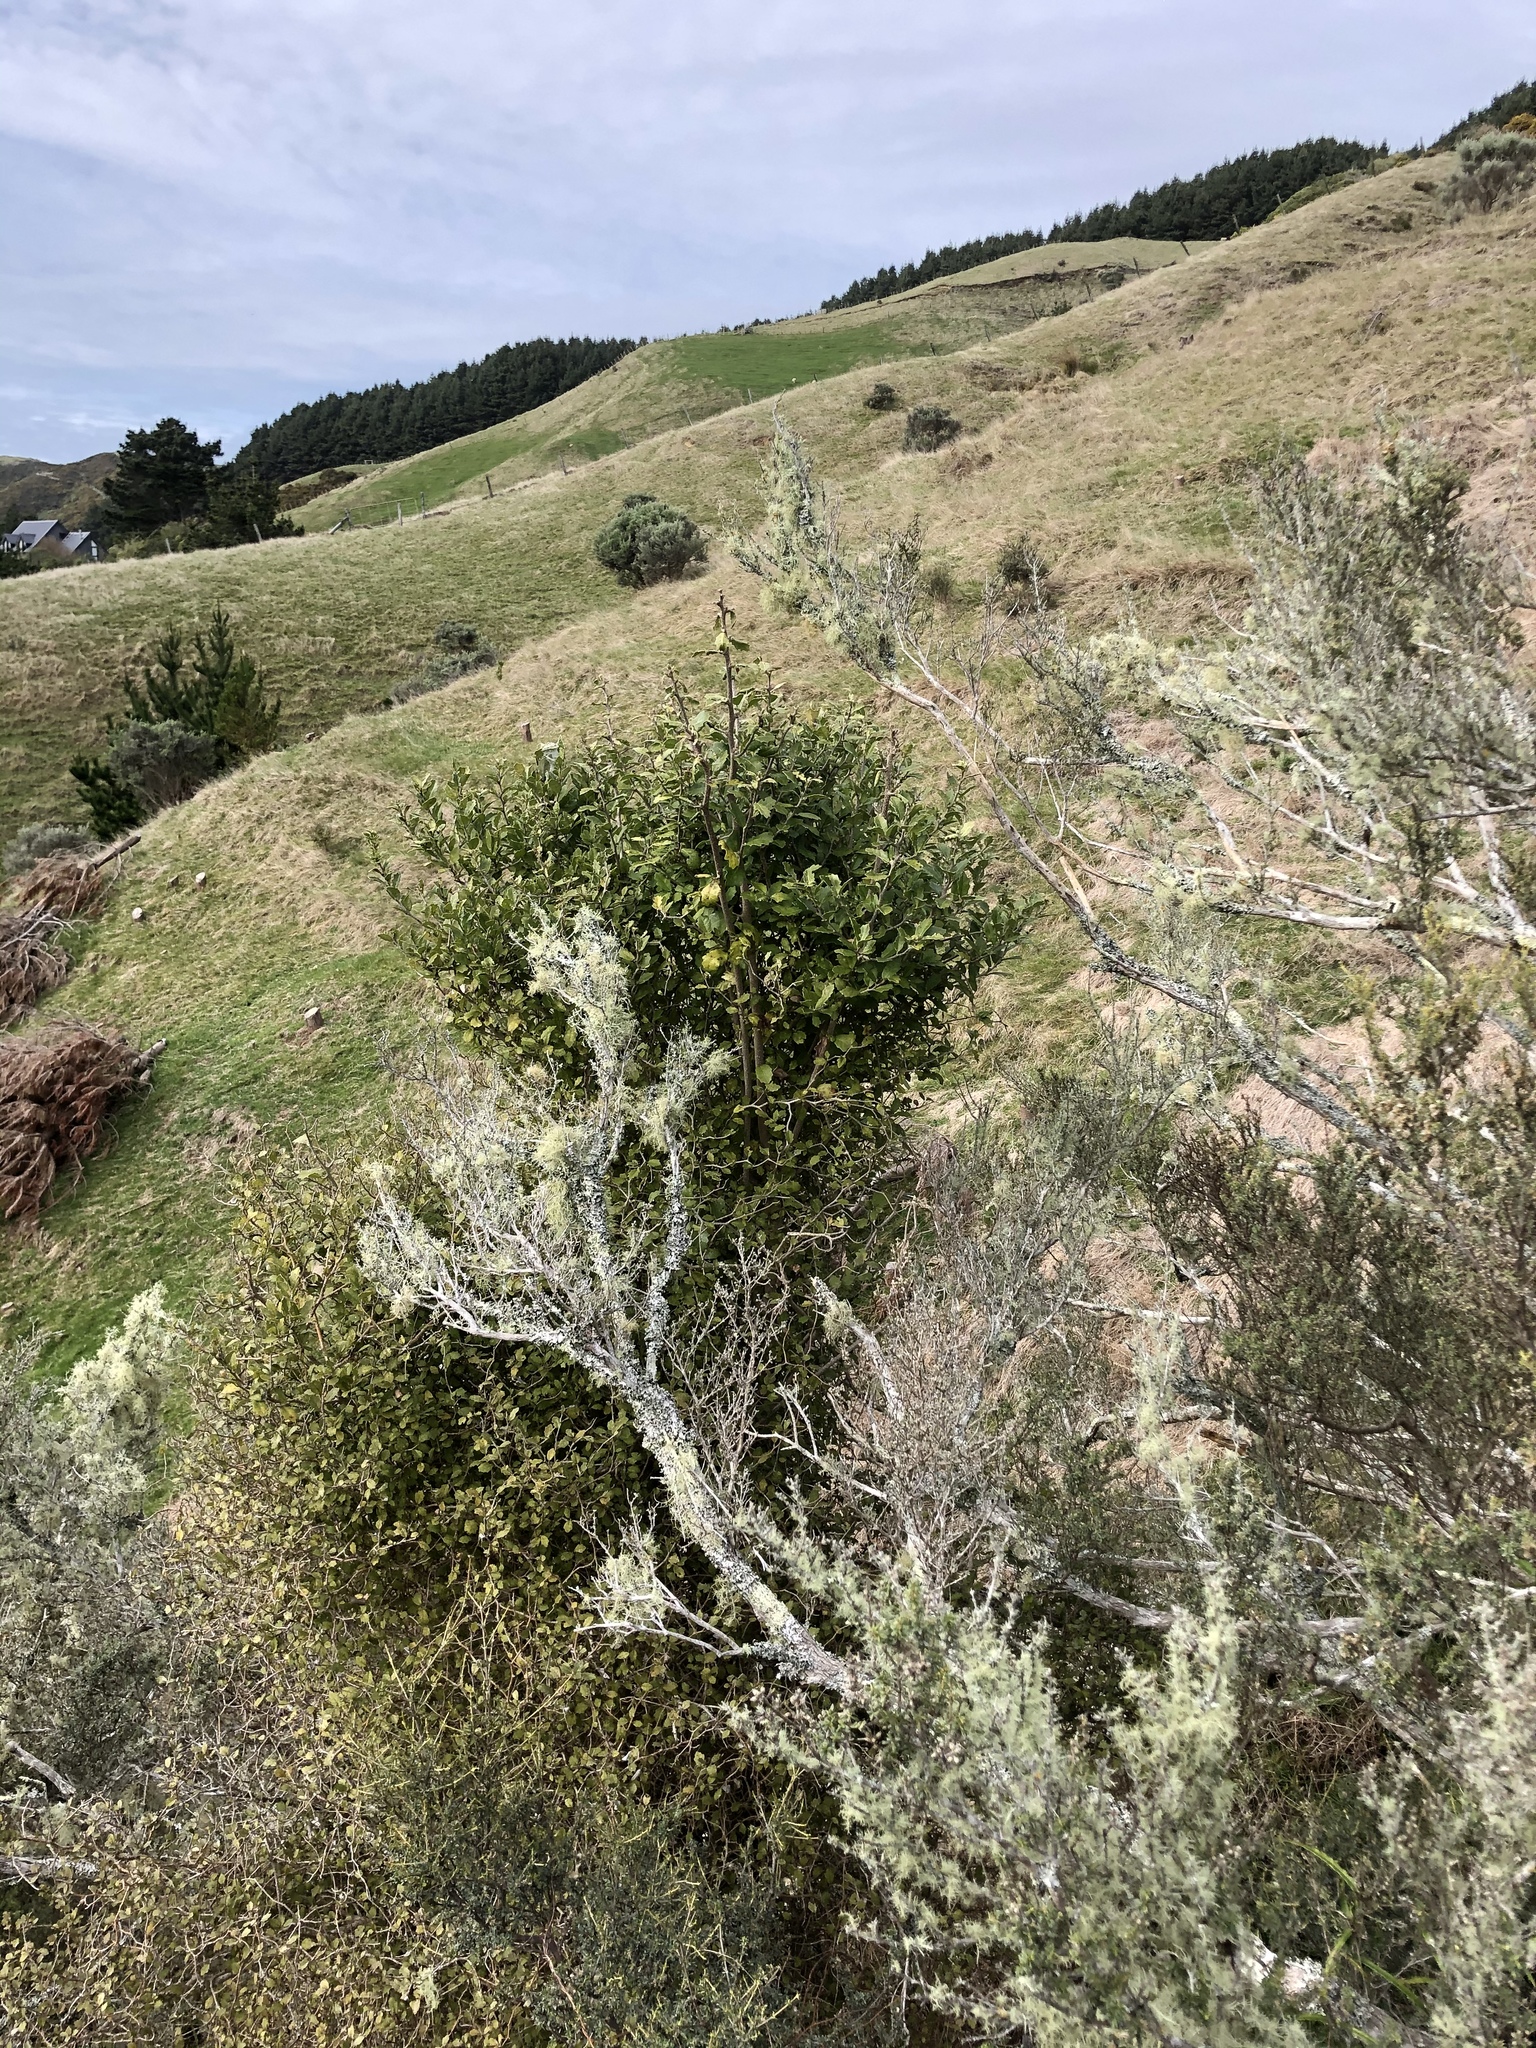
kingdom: Plantae
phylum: Tracheophyta
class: Magnoliopsida
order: Asterales
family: Asteraceae
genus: Olearia
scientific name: Olearia rani
